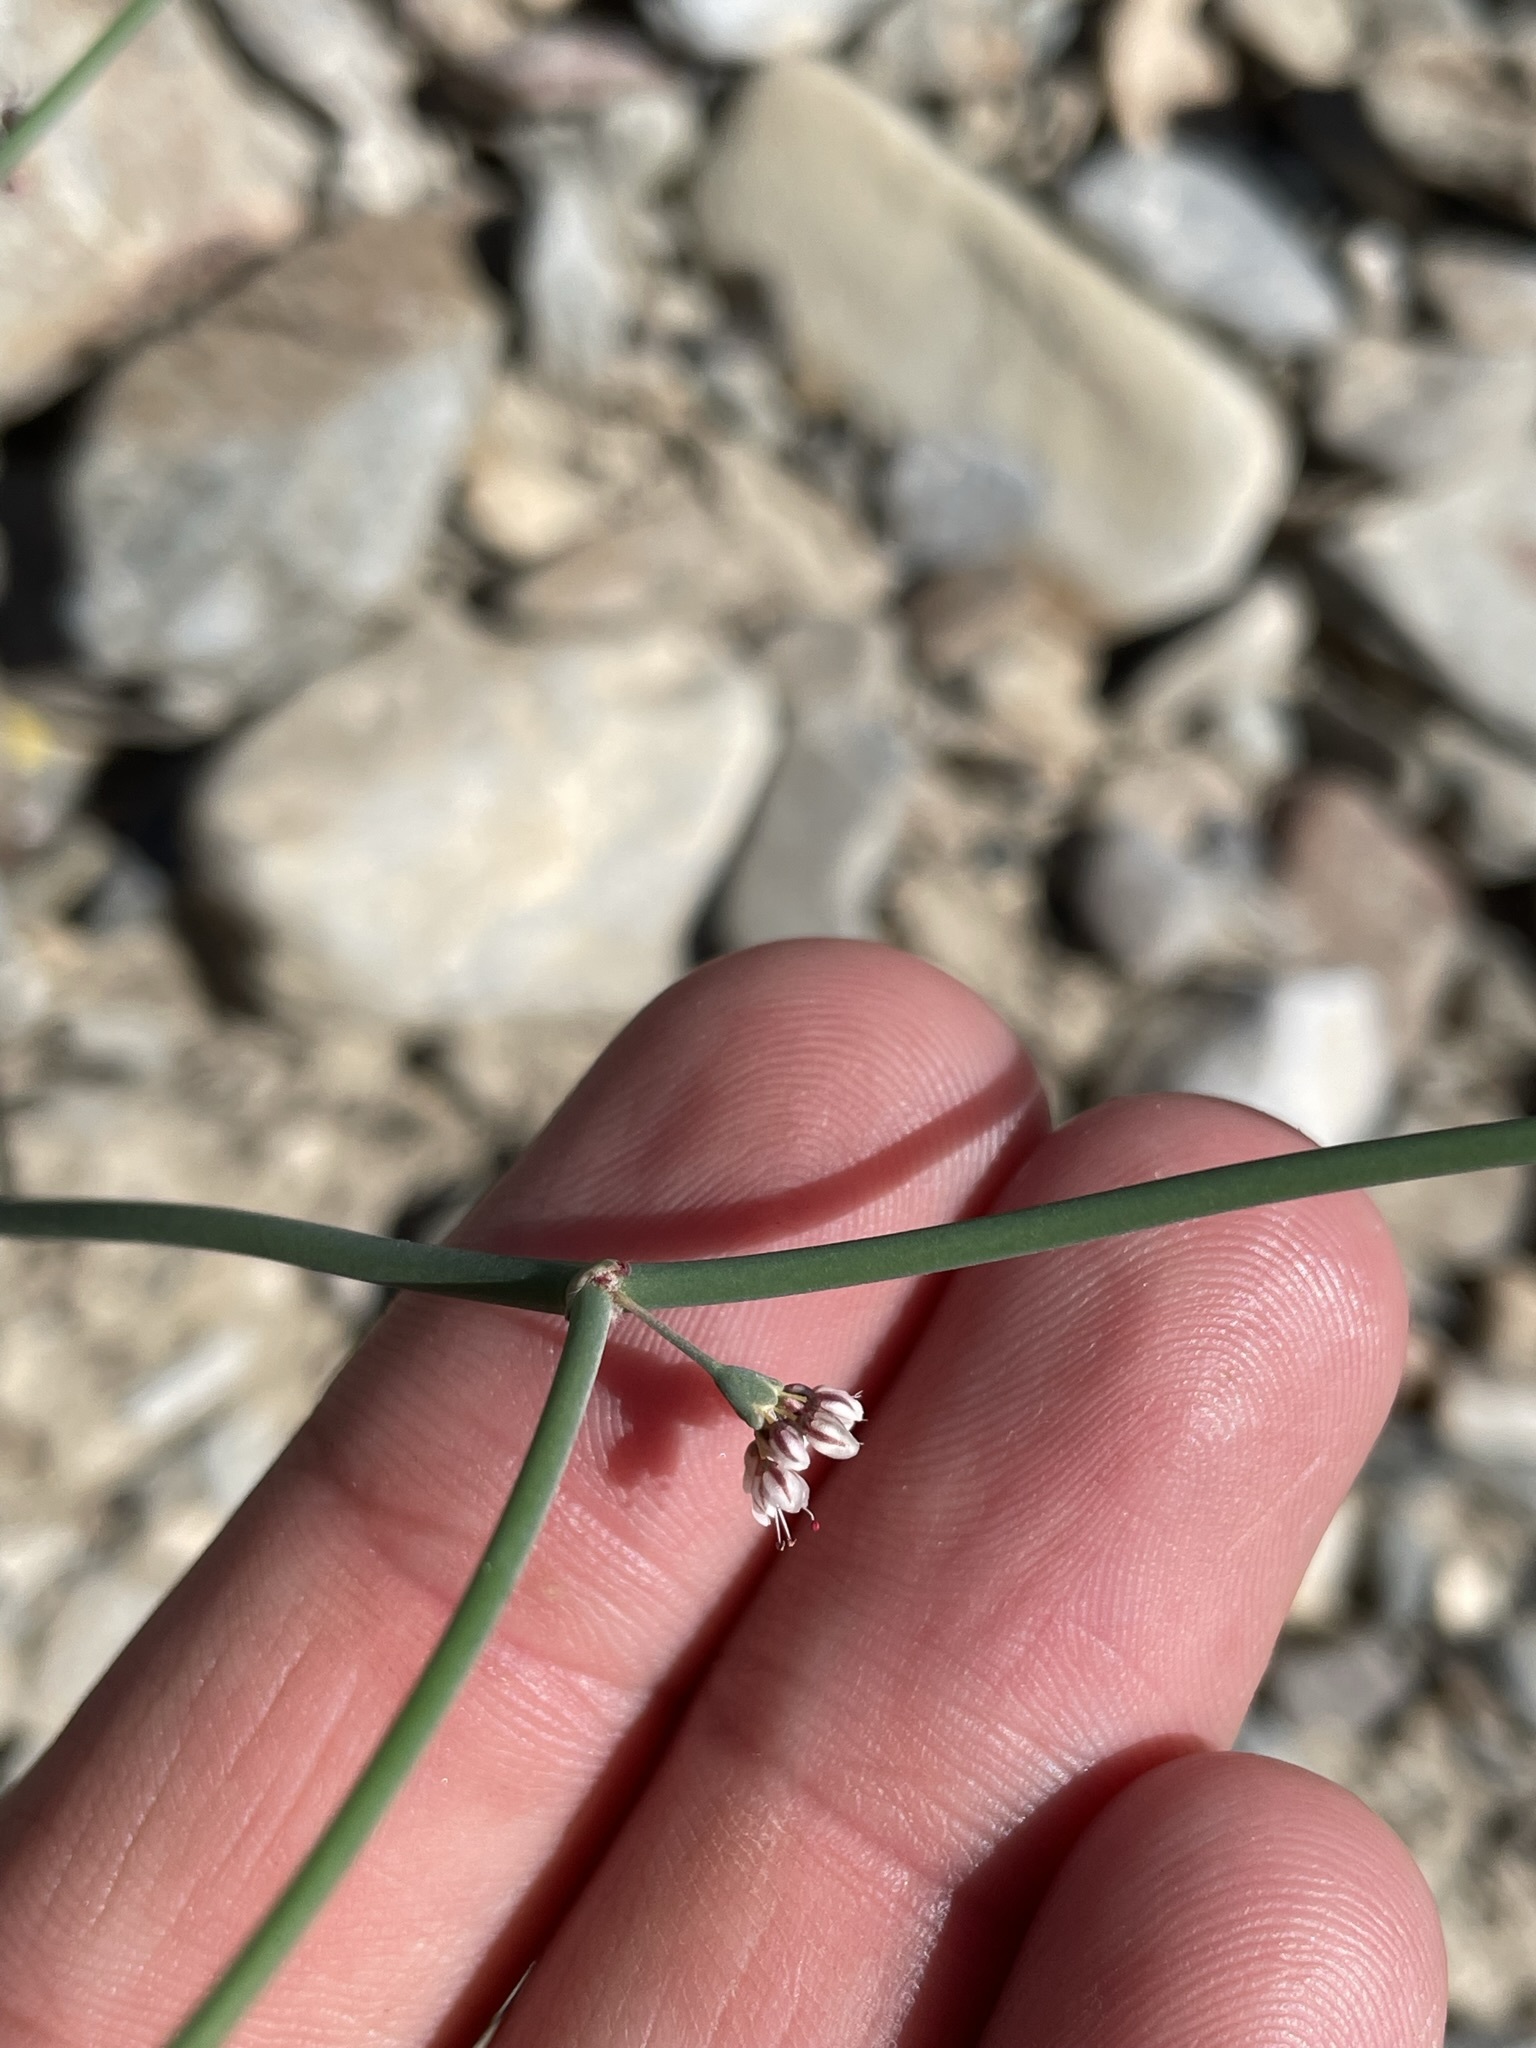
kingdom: Plantae
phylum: Tracheophyta
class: Magnoliopsida
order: Caryophyllales
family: Polygonaceae
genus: Eriogonum
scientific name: Eriogonum deflexum
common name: Skeleton-weed
